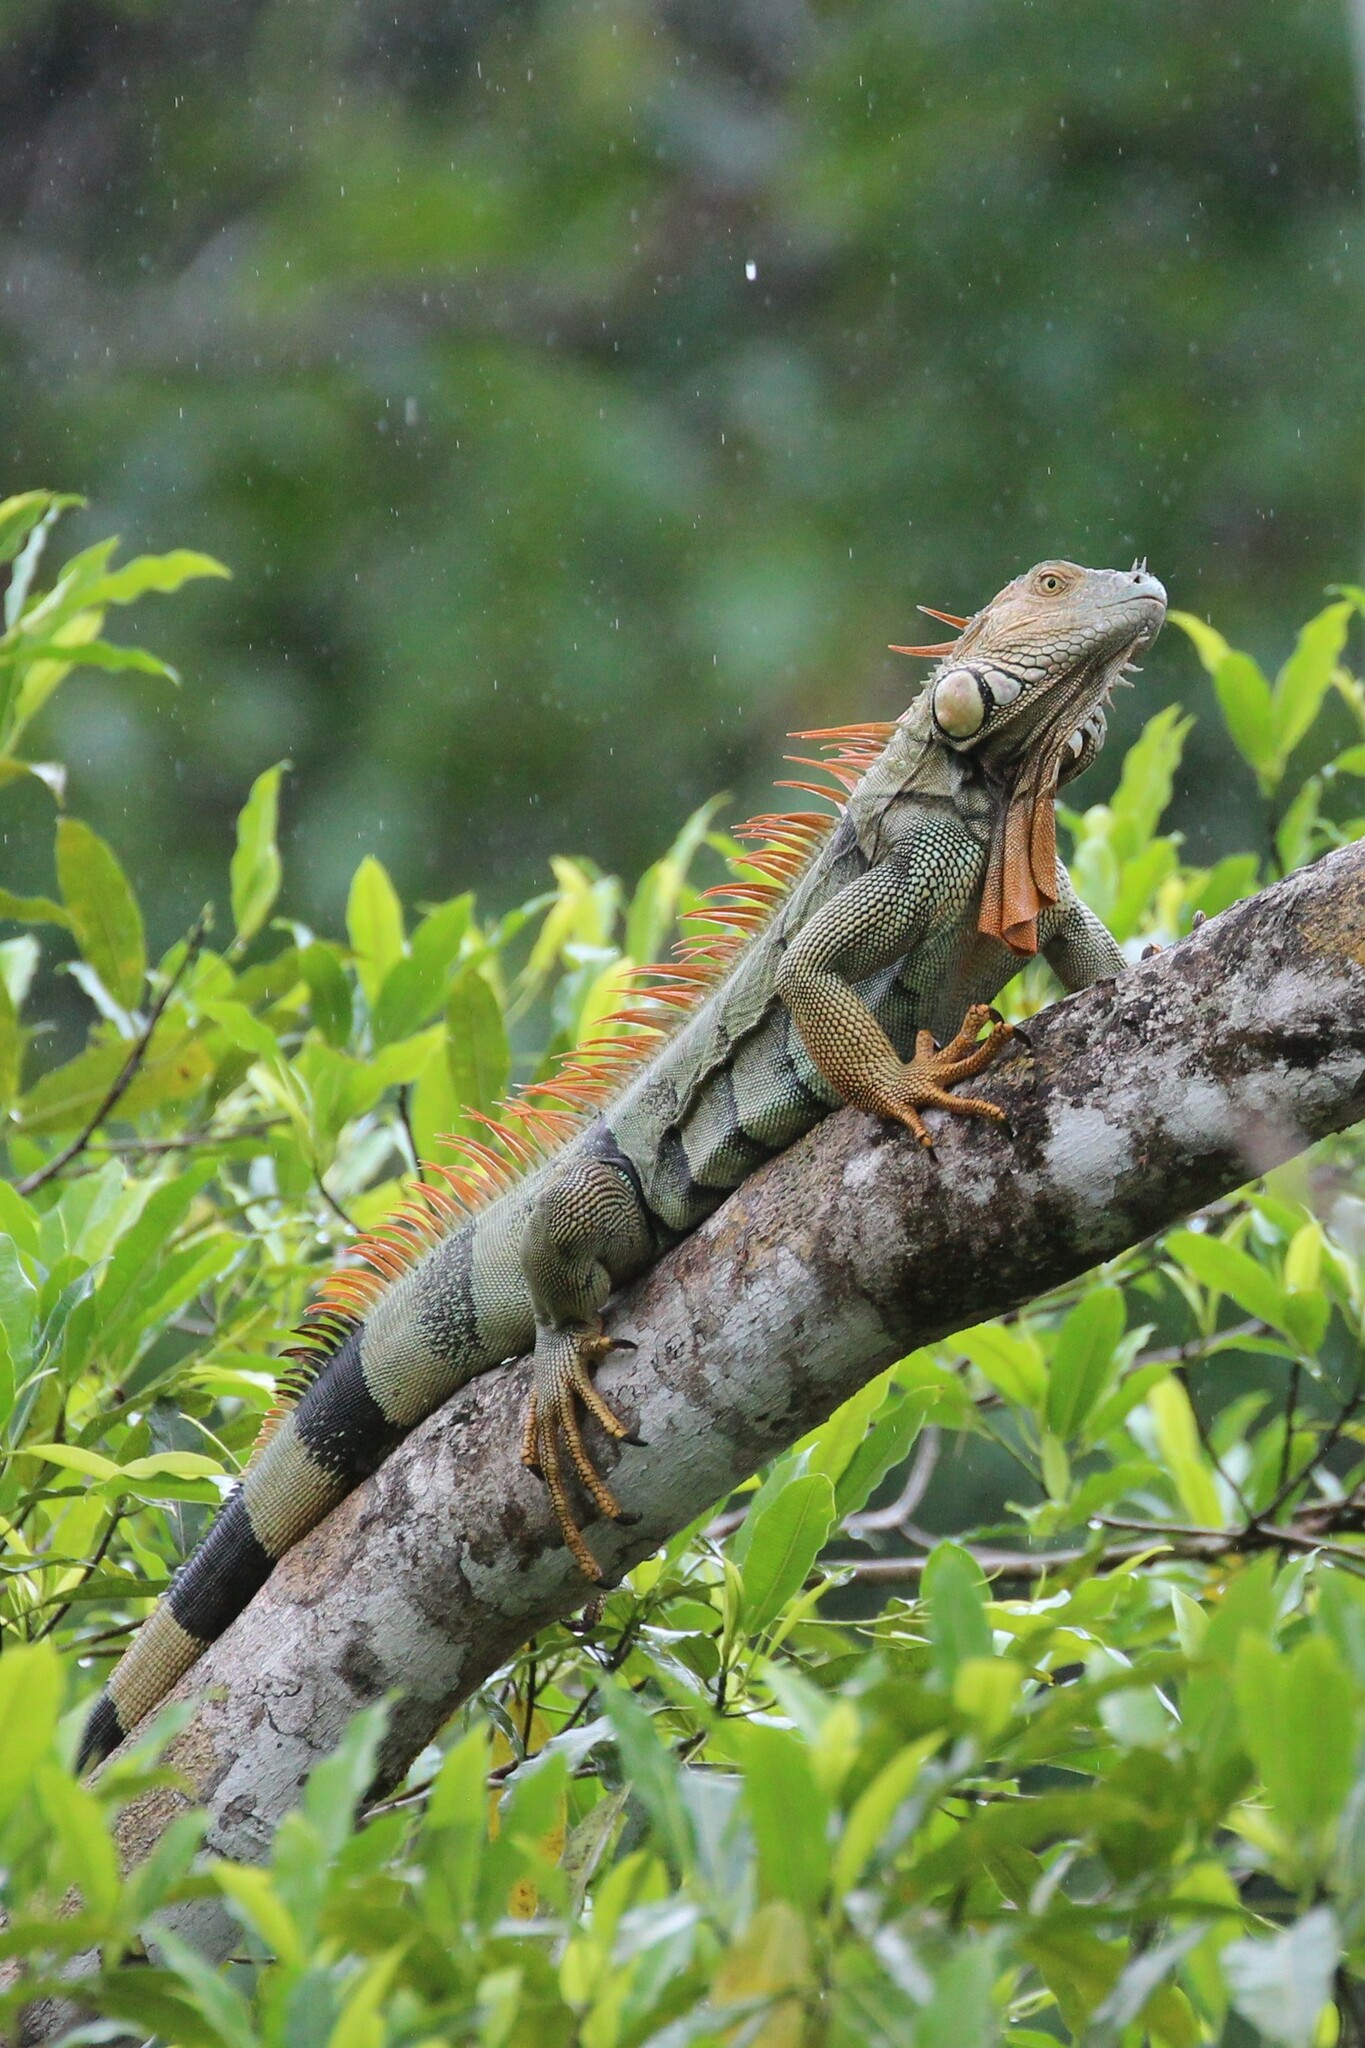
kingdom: Animalia
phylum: Chordata
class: Squamata
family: Iguanidae
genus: Iguana
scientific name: Iguana iguana
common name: Green iguana
